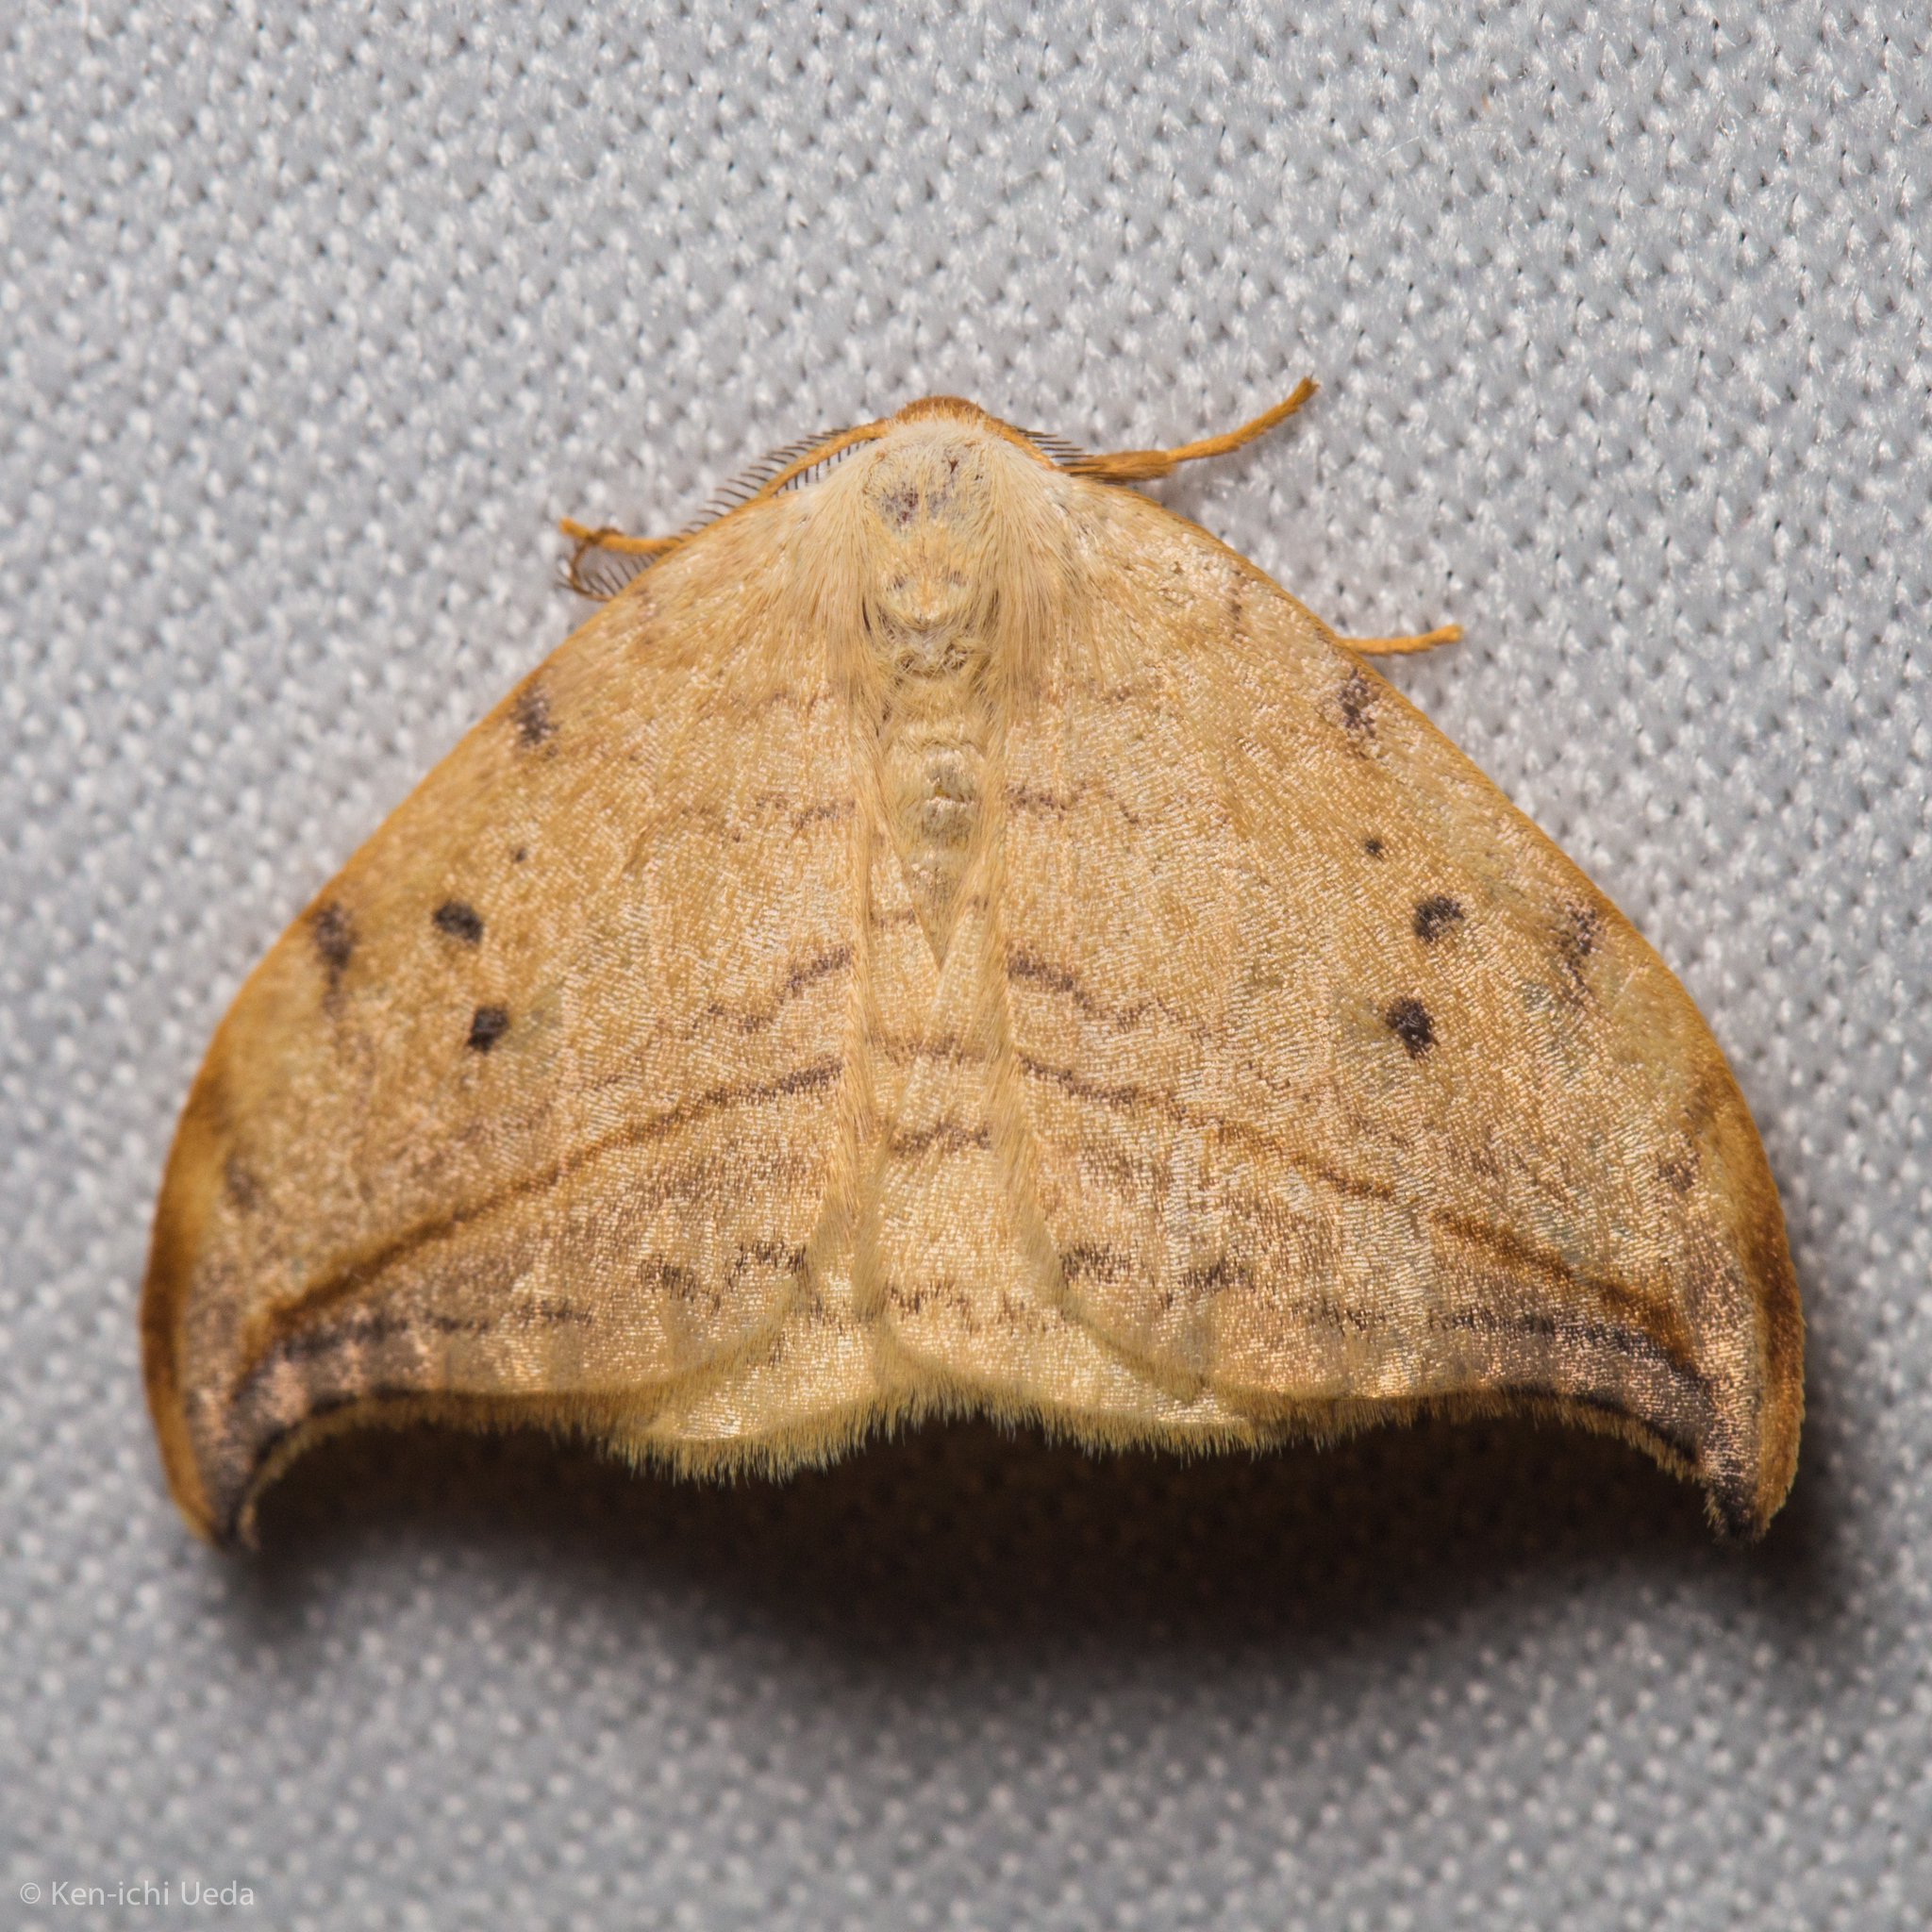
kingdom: Animalia
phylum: Arthropoda
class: Insecta
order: Lepidoptera
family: Drepanidae
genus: Drepana
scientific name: Drepana arcuata
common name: Arched hooktip moth
